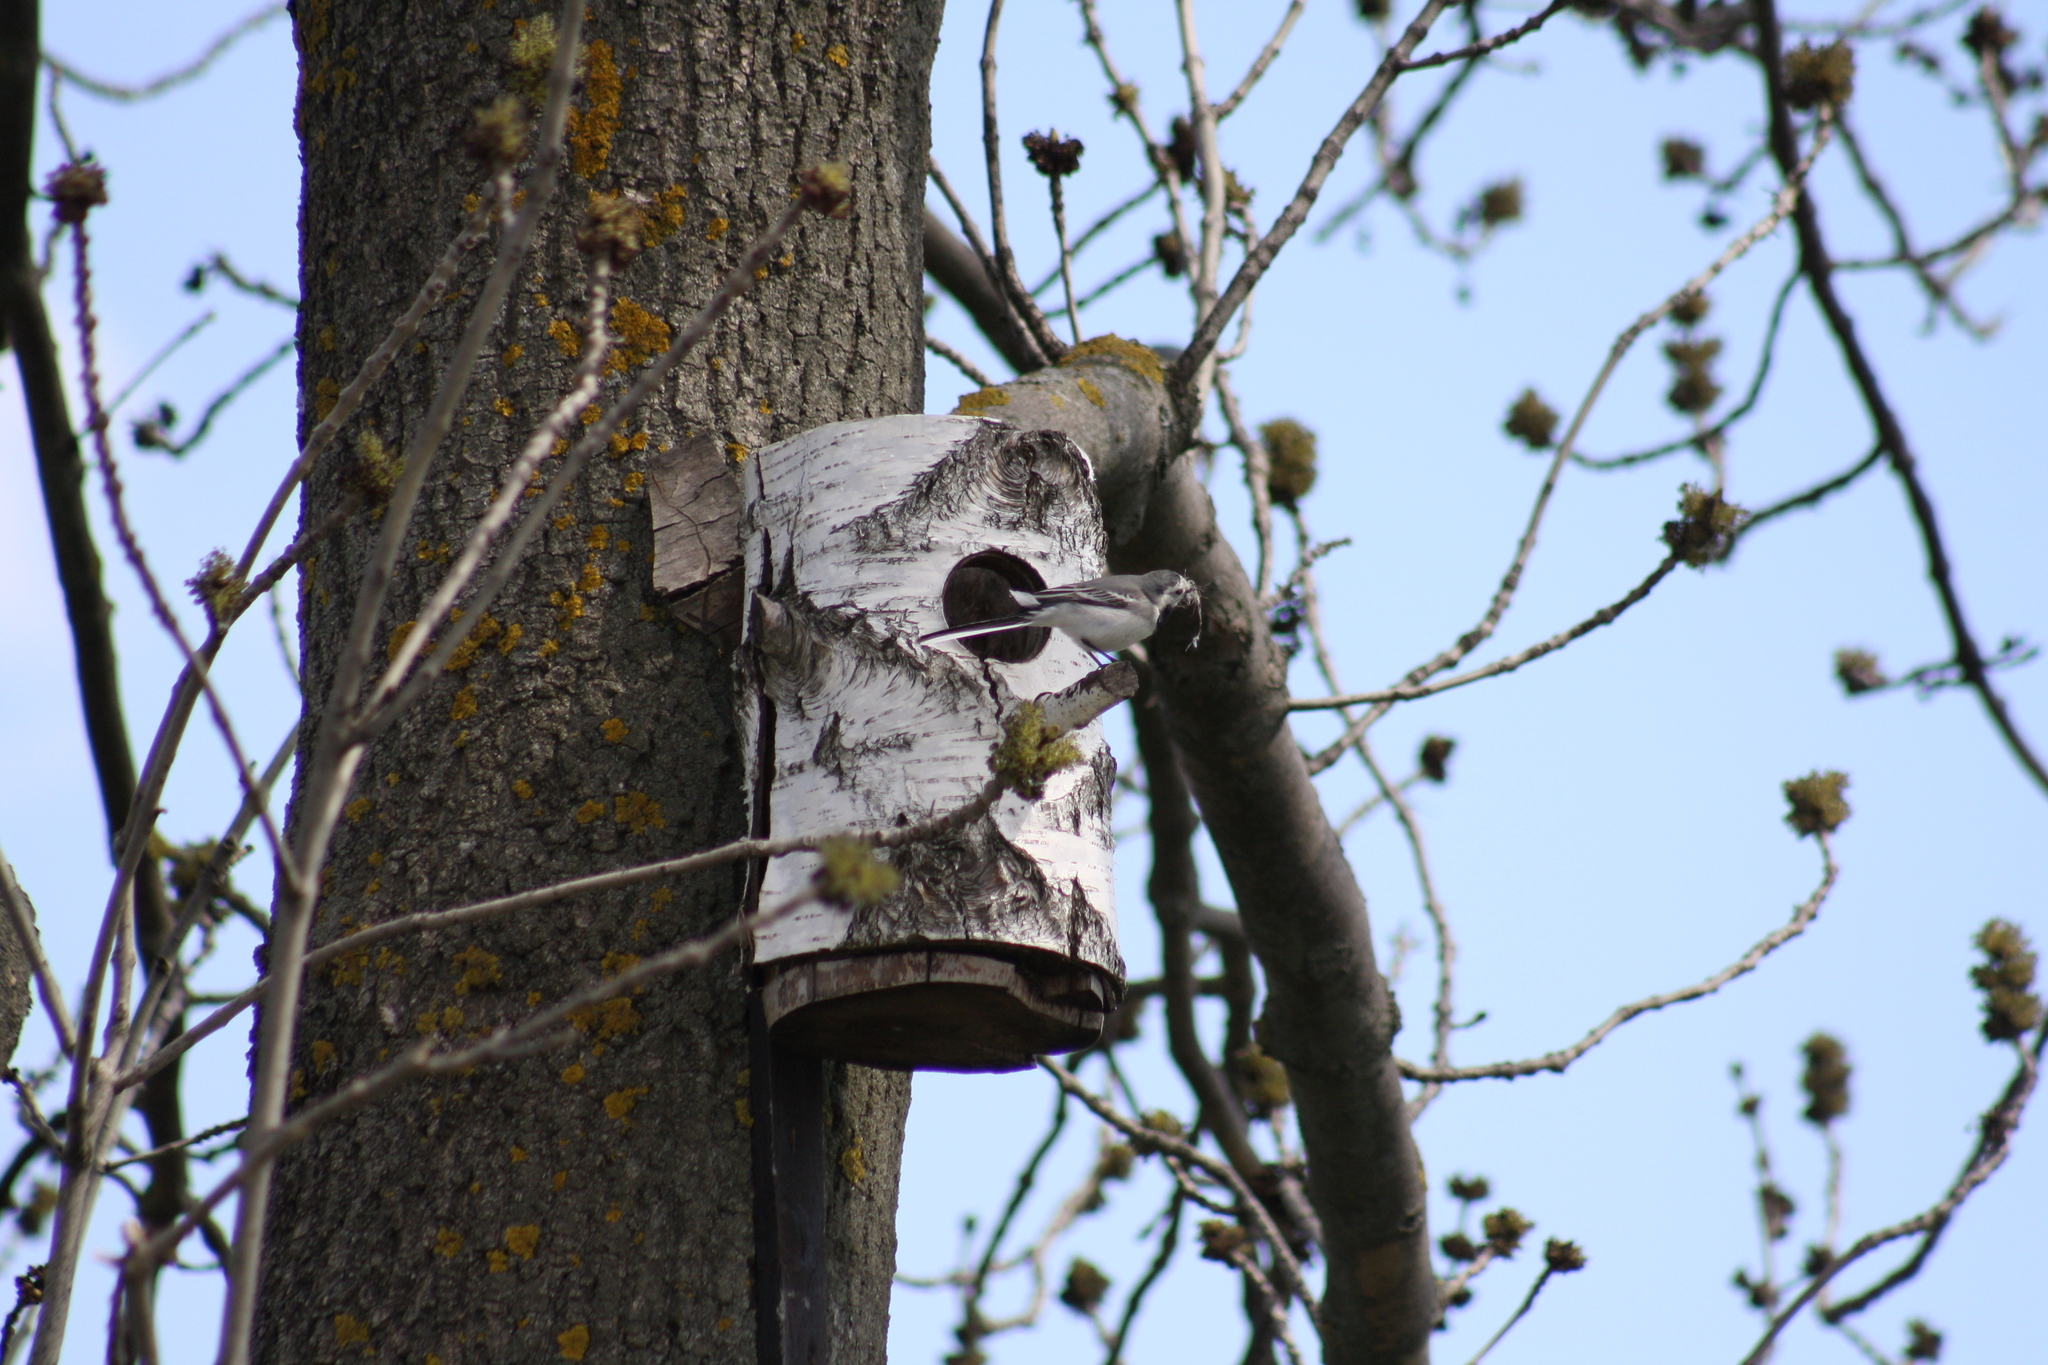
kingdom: Animalia
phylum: Chordata
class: Aves
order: Passeriformes
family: Motacillidae
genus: Motacilla
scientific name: Motacilla alba
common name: White wagtail
